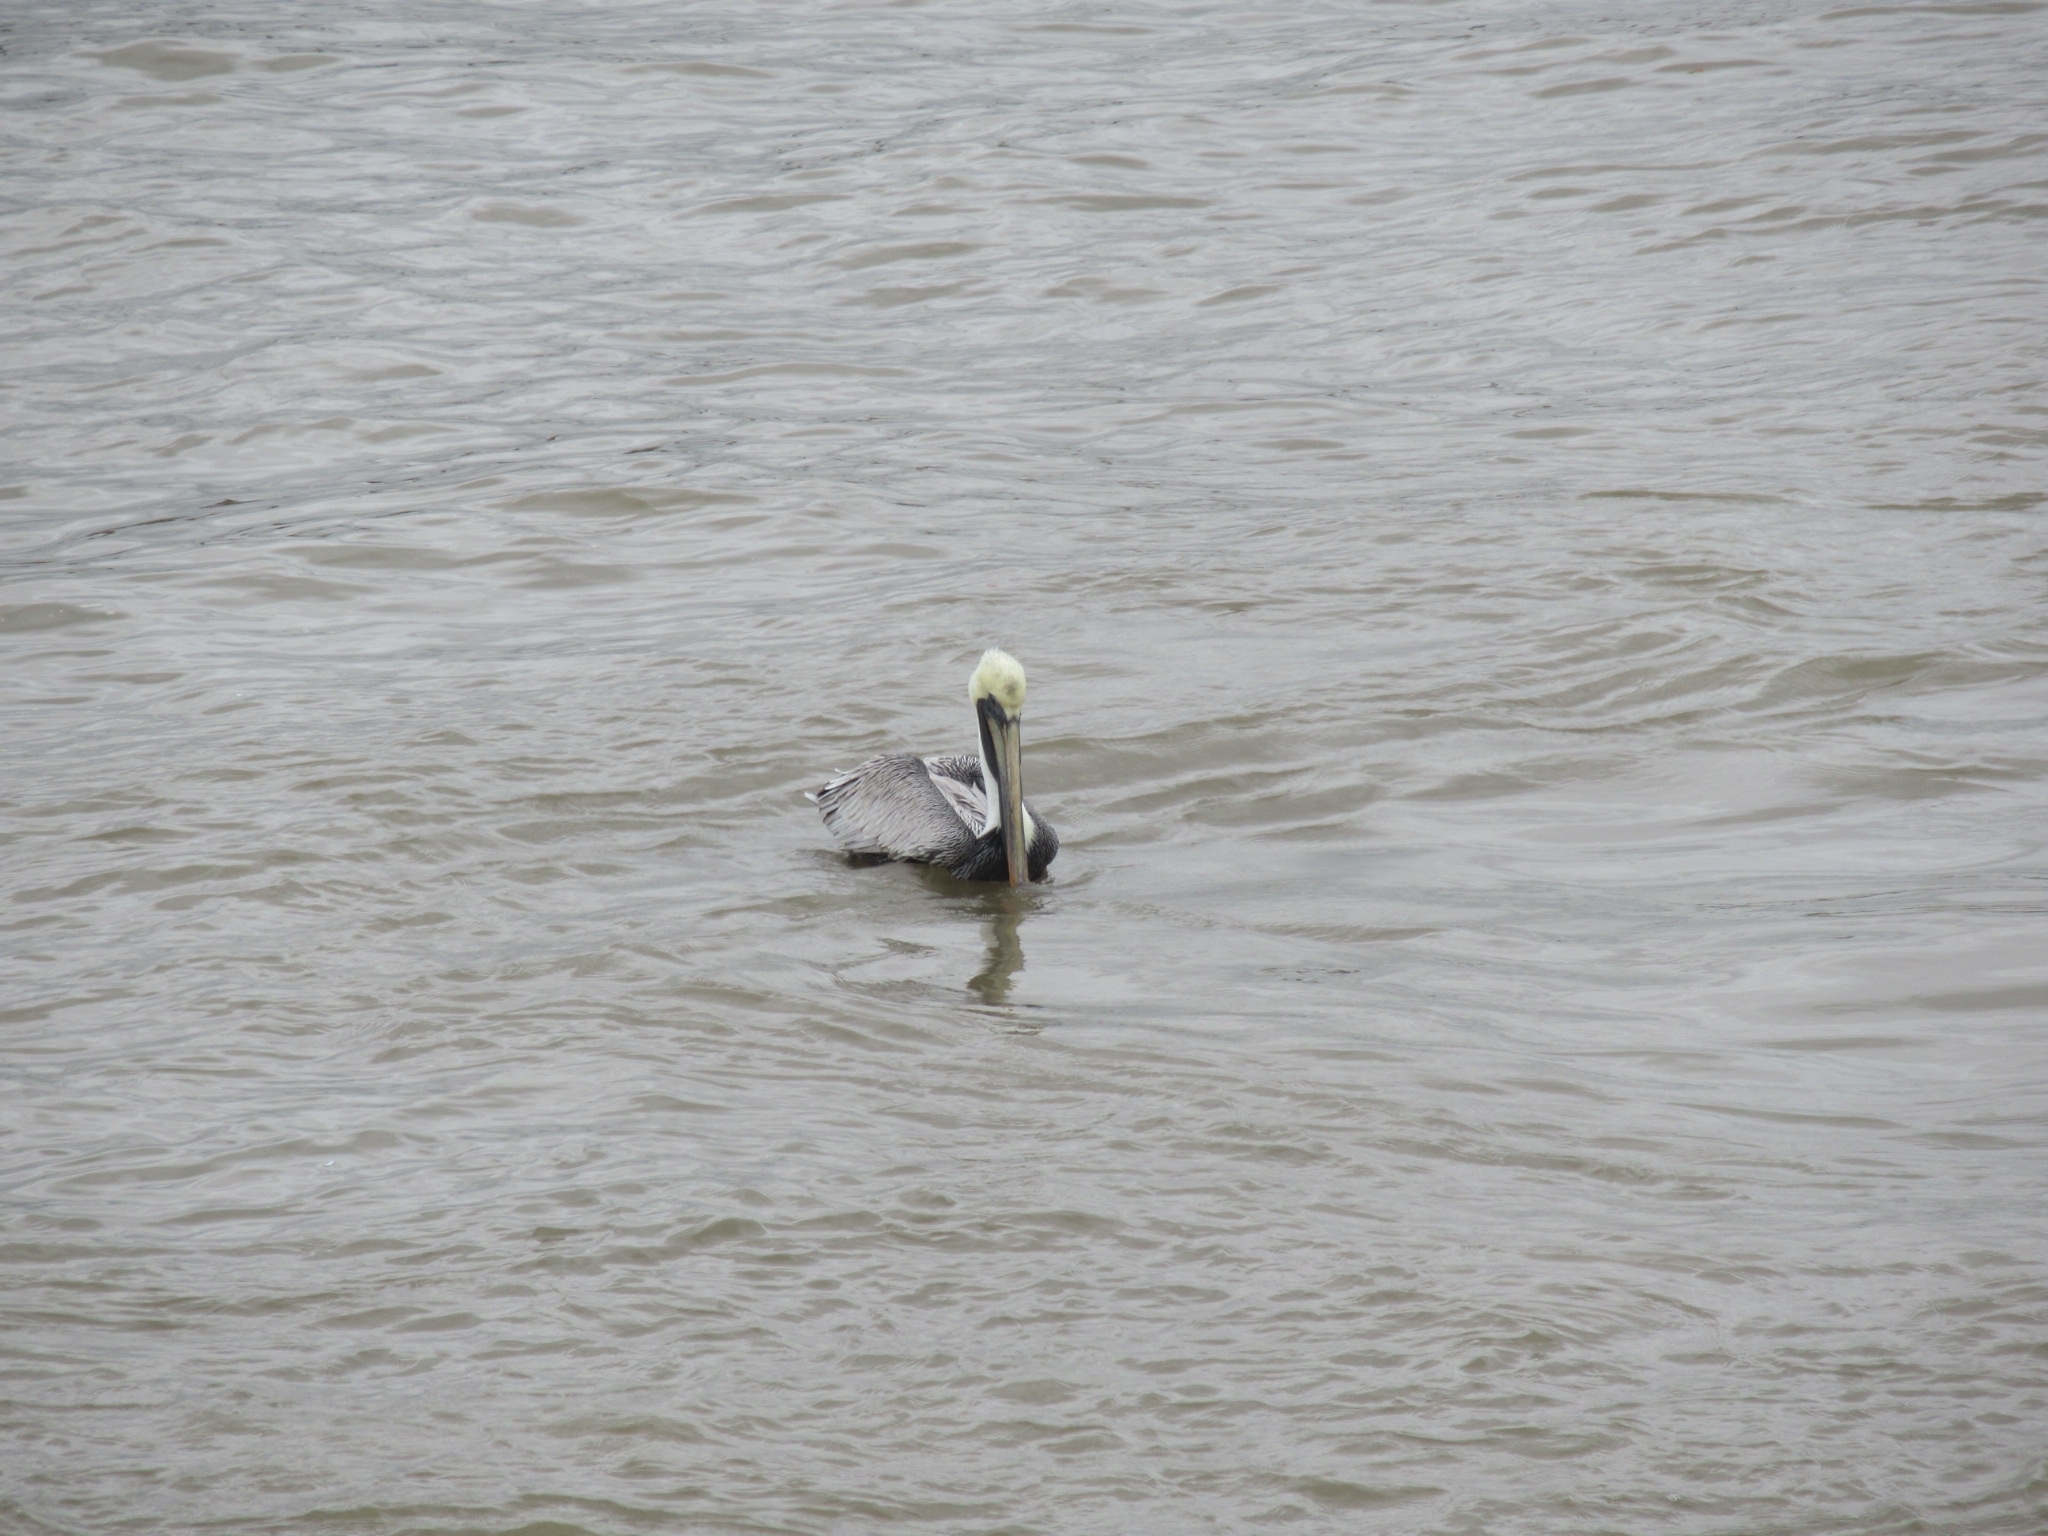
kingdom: Animalia
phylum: Chordata
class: Aves
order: Pelecaniformes
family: Pelecanidae
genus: Pelecanus
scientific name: Pelecanus occidentalis
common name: Brown pelican
